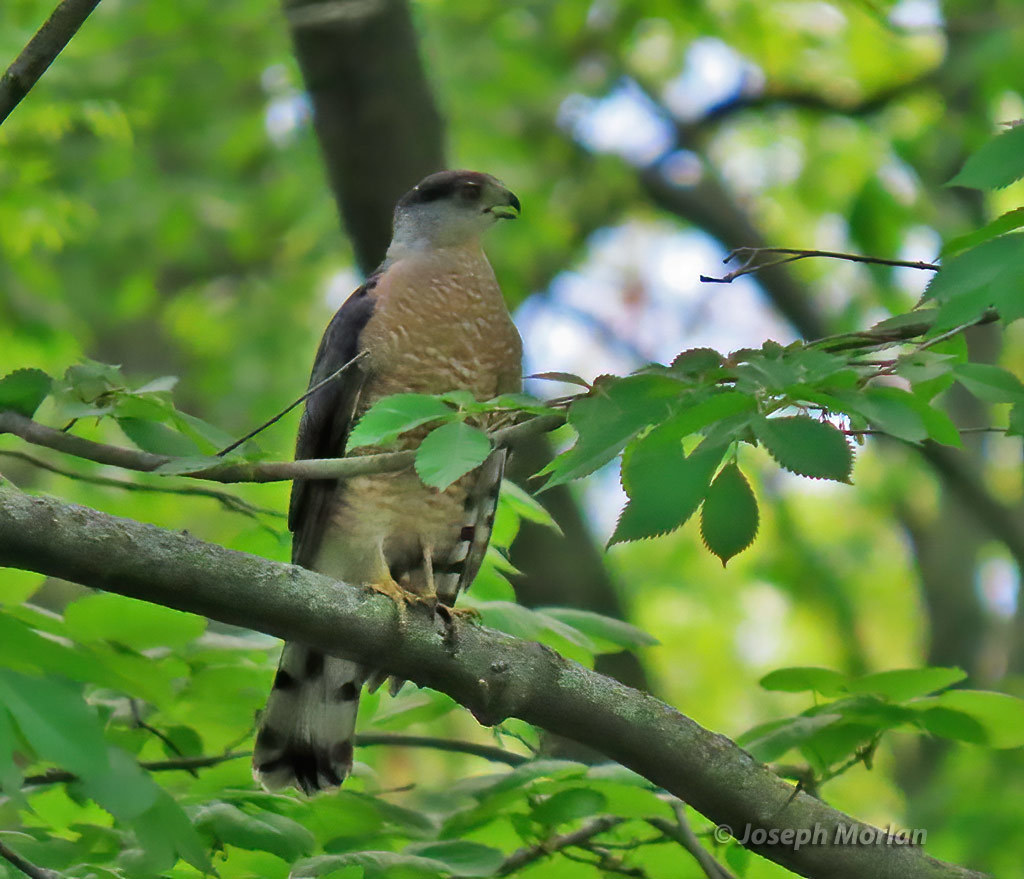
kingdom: Animalia
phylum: Chordata
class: Aves
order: Accipitriformes
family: Accipitridae
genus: Accipiter
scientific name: Accipiter cooperii
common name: Cooper's hawk
